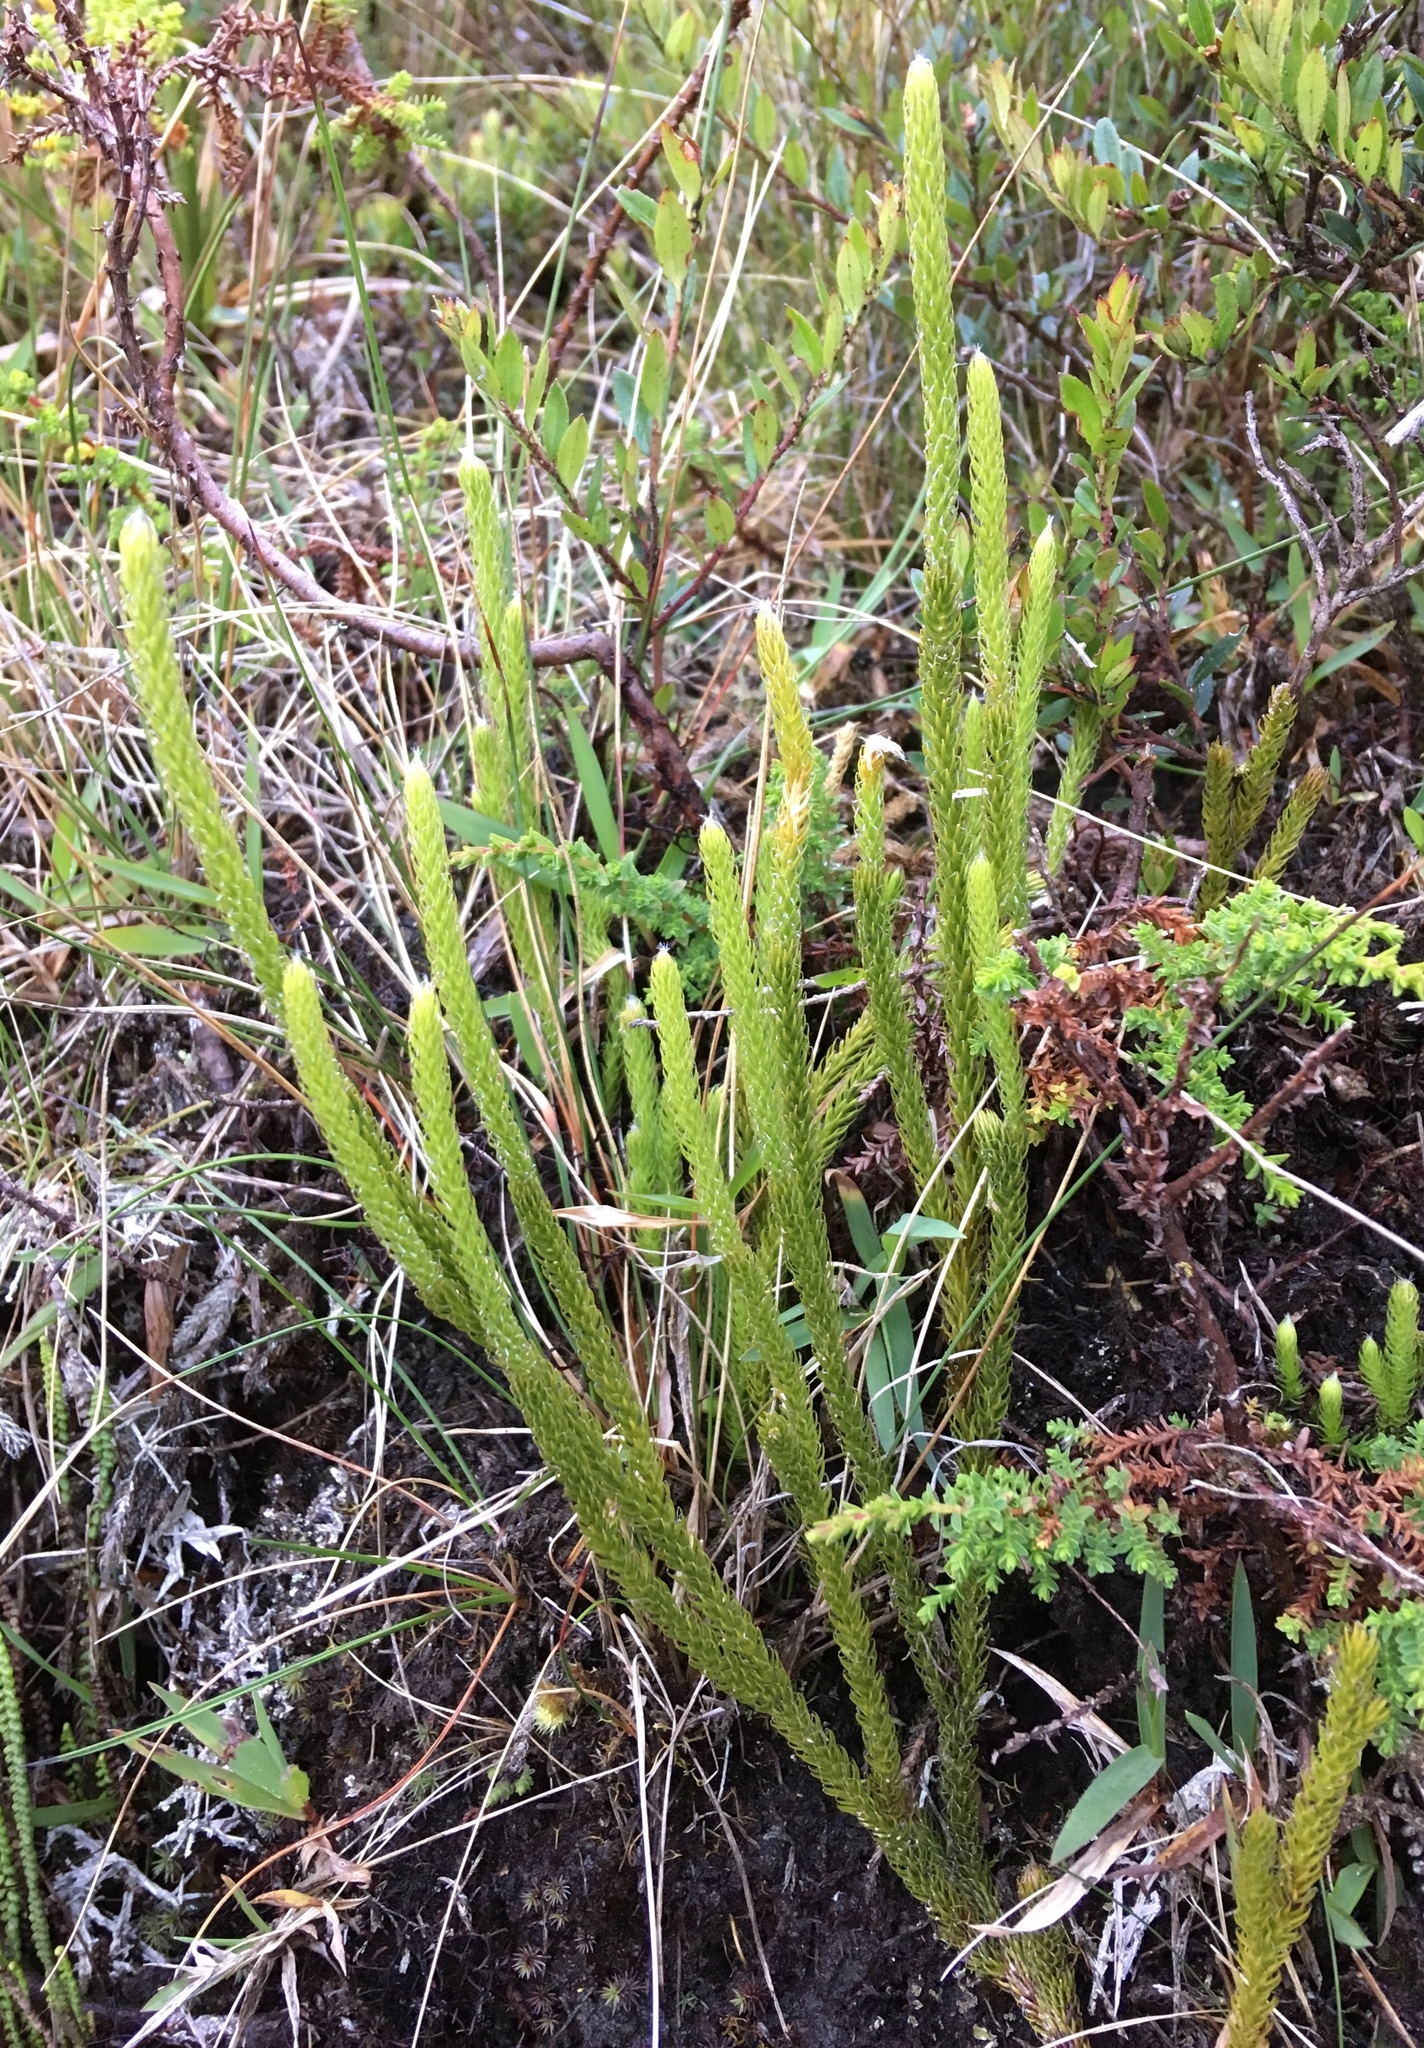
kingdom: Plantae
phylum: Tracheophyta
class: Lycopodiopsida
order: Lycopodiales
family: Lycopodiaceae
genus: Lycopodium
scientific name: Lycopodium clavatum
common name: Stag's-horn clubmoss
